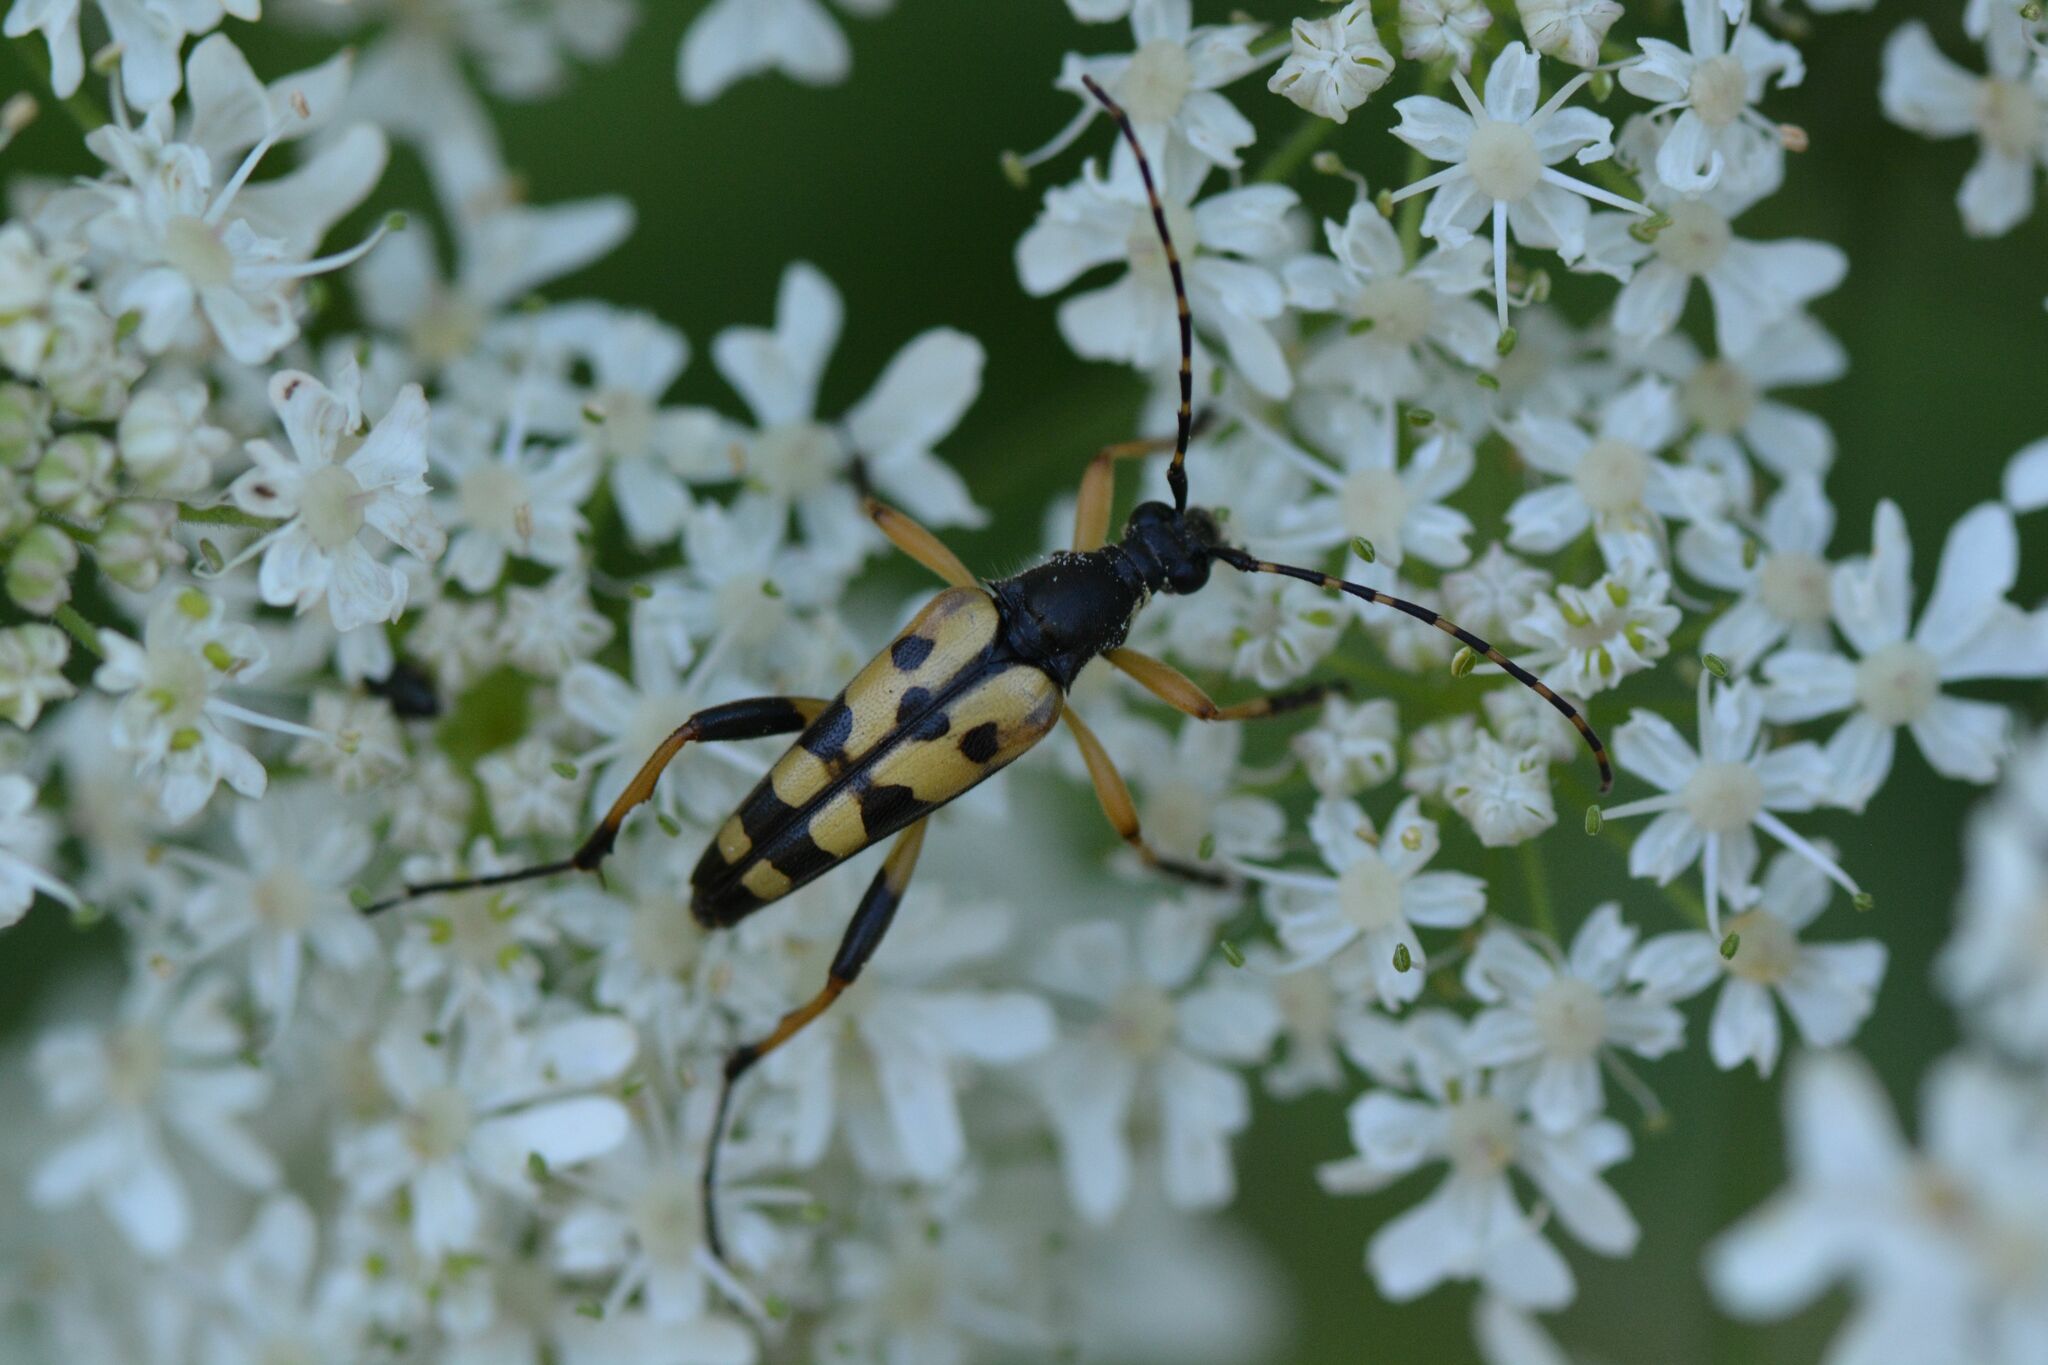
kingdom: Animalia
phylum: Arthropoda
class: Insecta
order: Coleoptera
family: Cerambycidae
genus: Rutpela
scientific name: Rutpela maculata
